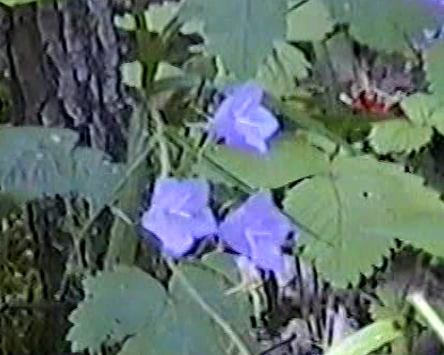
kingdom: Plantae
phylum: Tracheophyta
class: Magnoliopsida
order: Asterales
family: Campanulaceae
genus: Campanula
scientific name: Campanula persicifolia
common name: Peach-leaved bellflower
